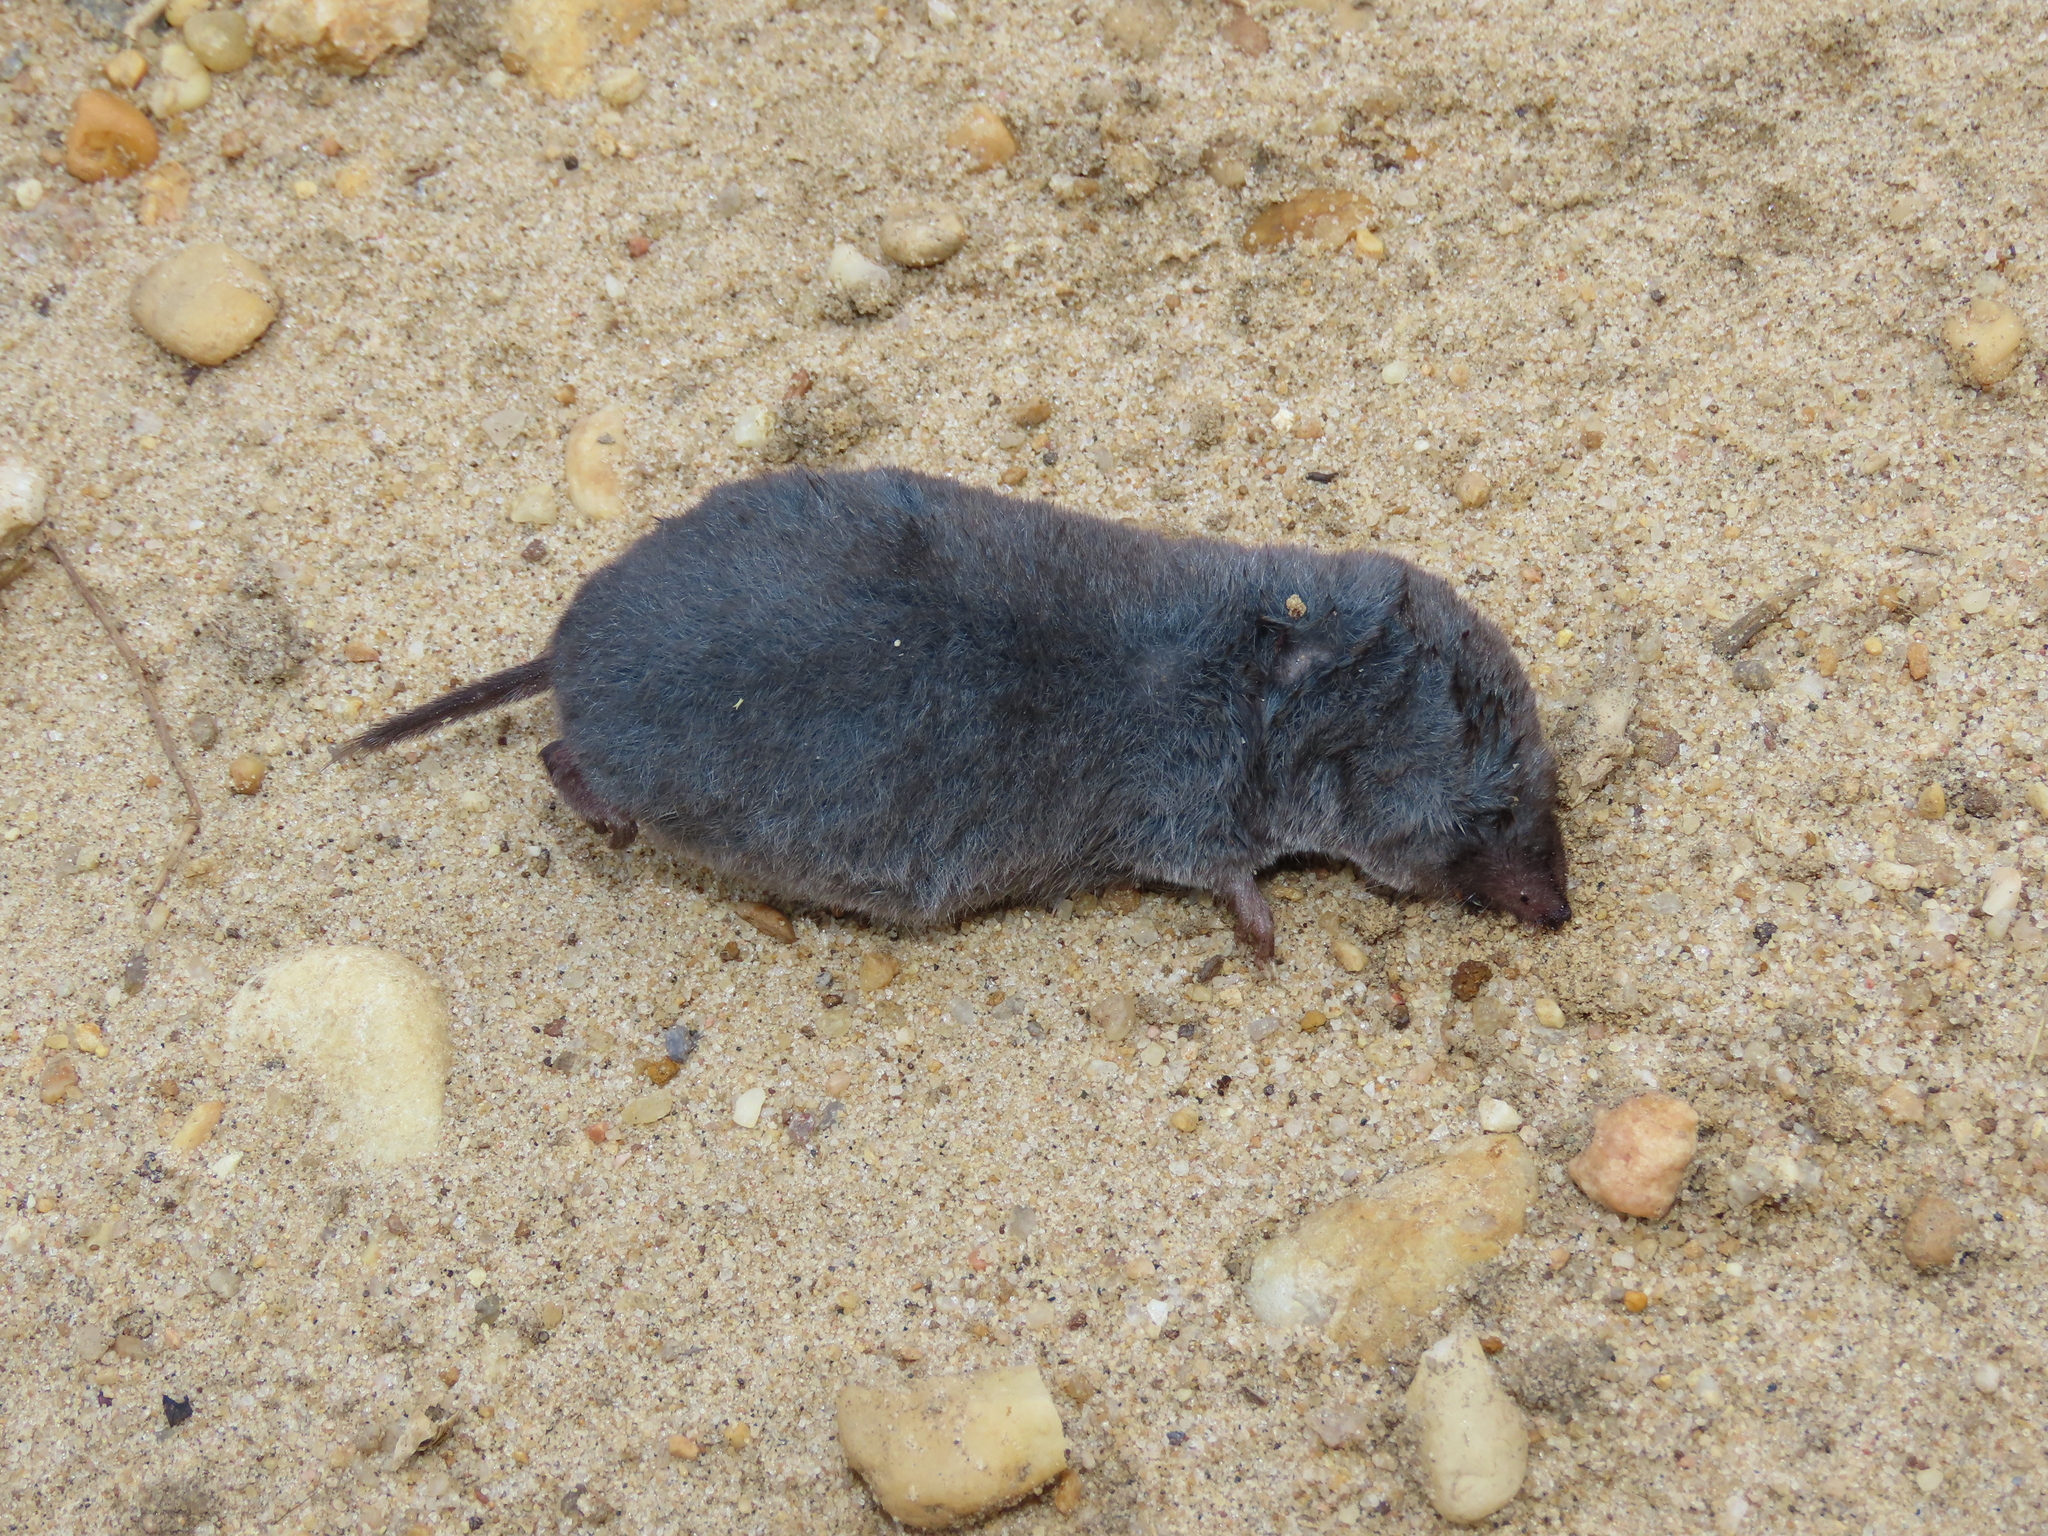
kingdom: Animalia
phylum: Chordata
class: Mammalia
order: Soricomorpha
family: Soricidae
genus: Blarina
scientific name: Blarina brevicauda
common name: Northern short-tailed shrew
